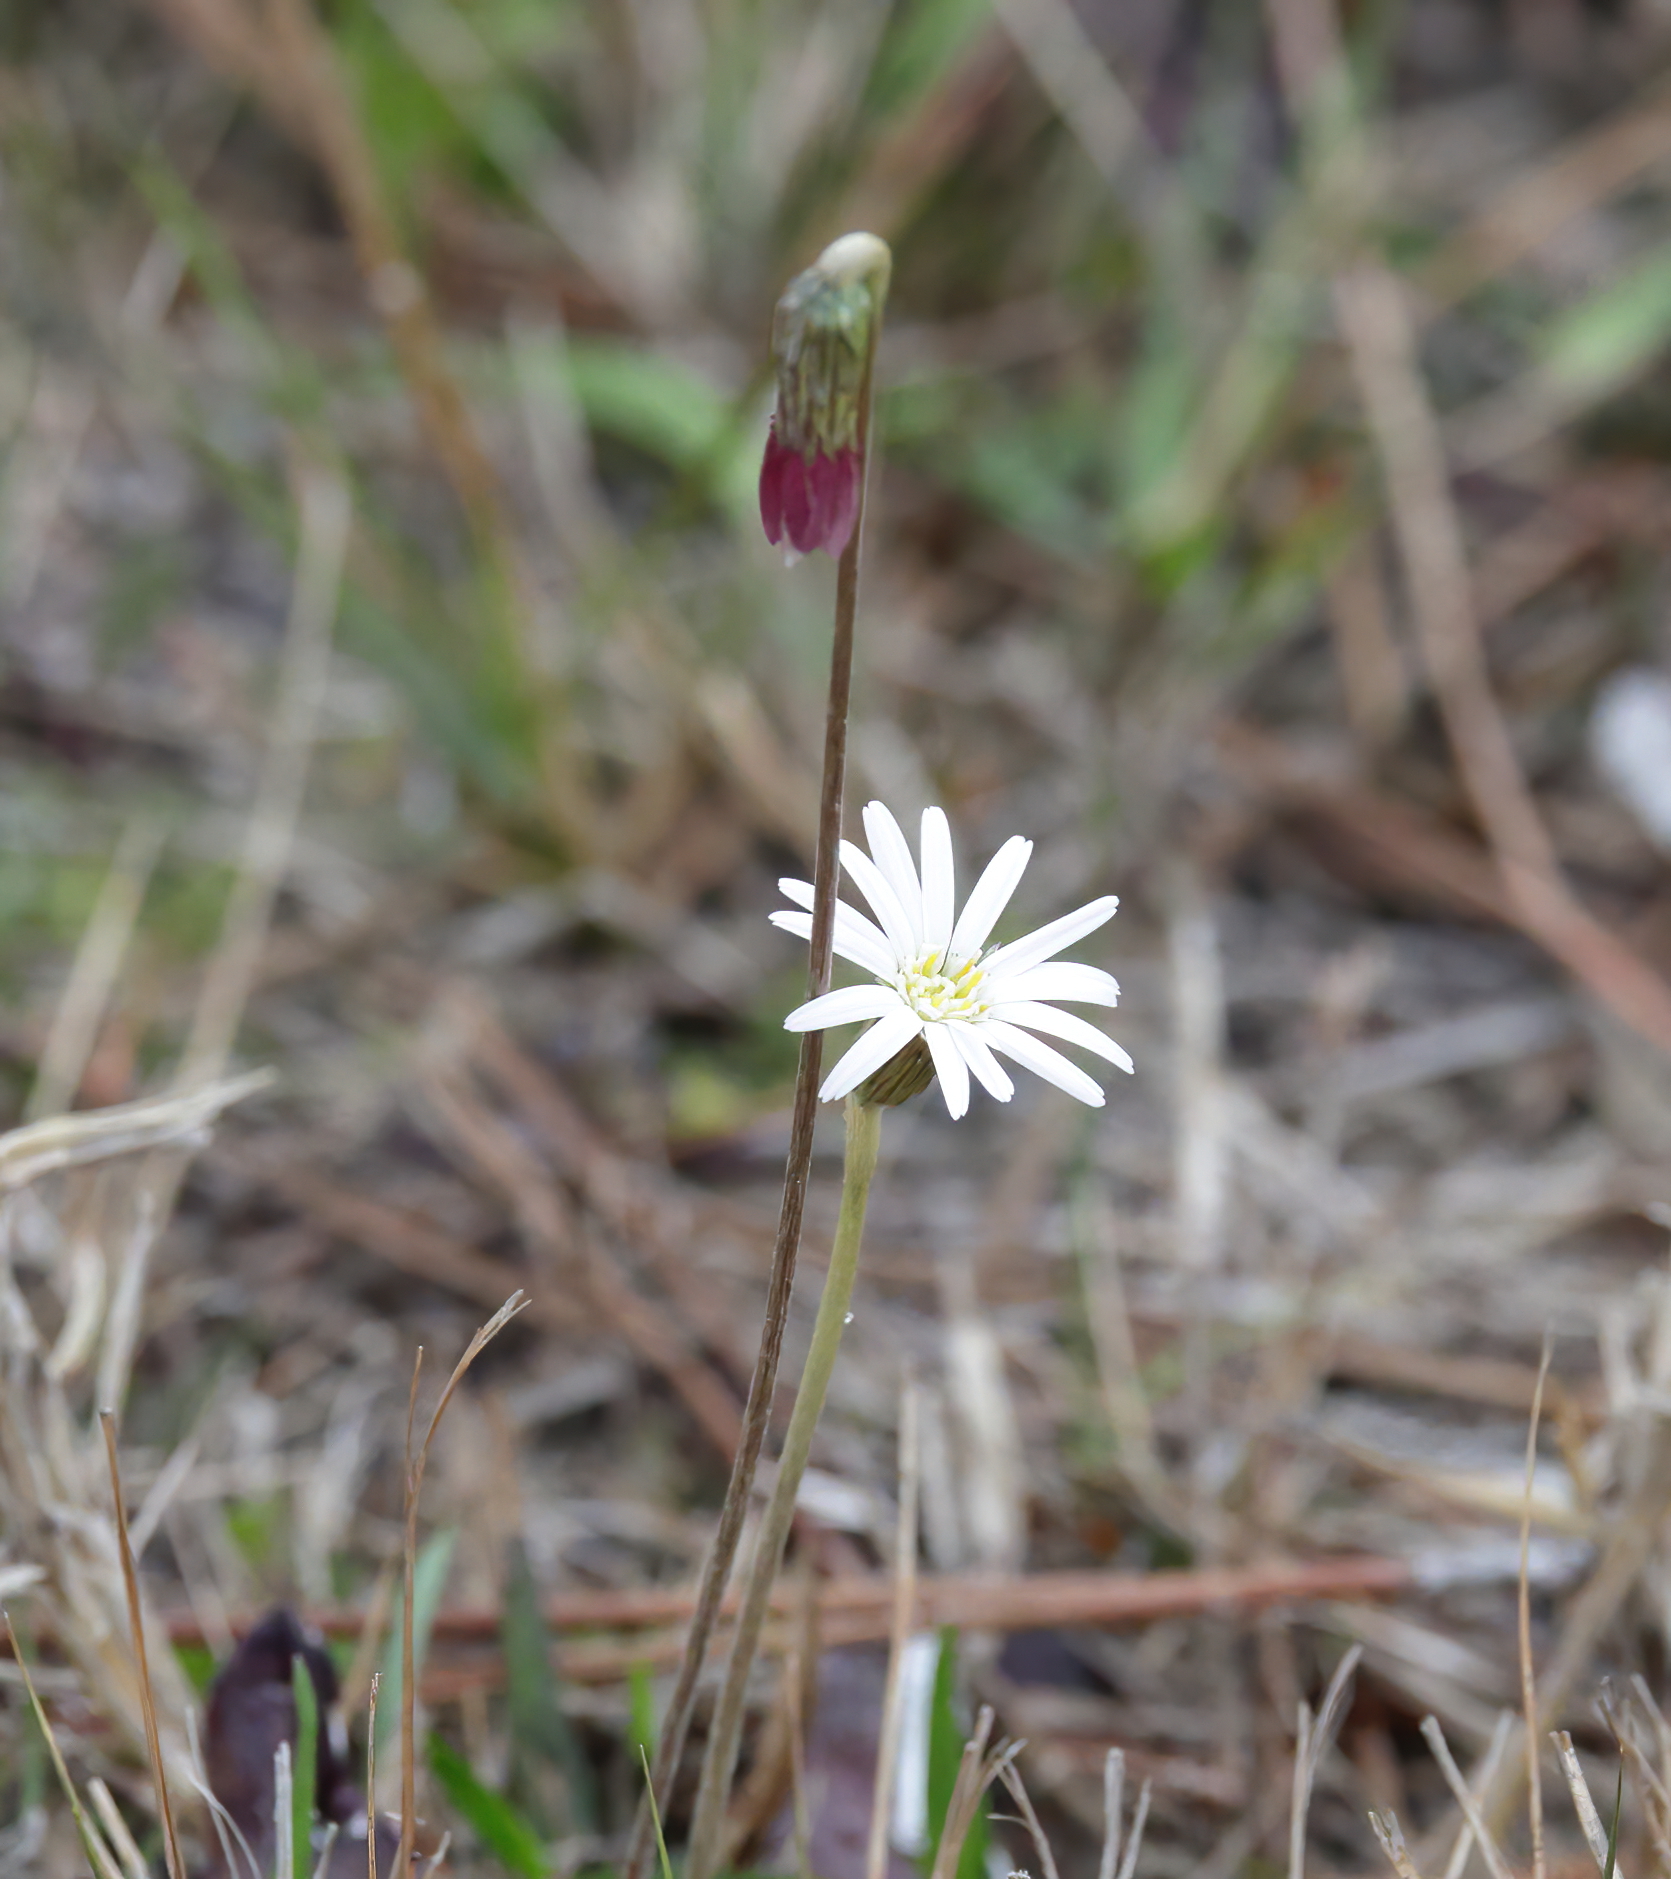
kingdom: Plantae
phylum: Tracheophyta
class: Magnoliopsida
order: Asterales
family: Asteraceae
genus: Chaptalia
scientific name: Chaptalia tomentosa
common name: Woolly sunbonnet
